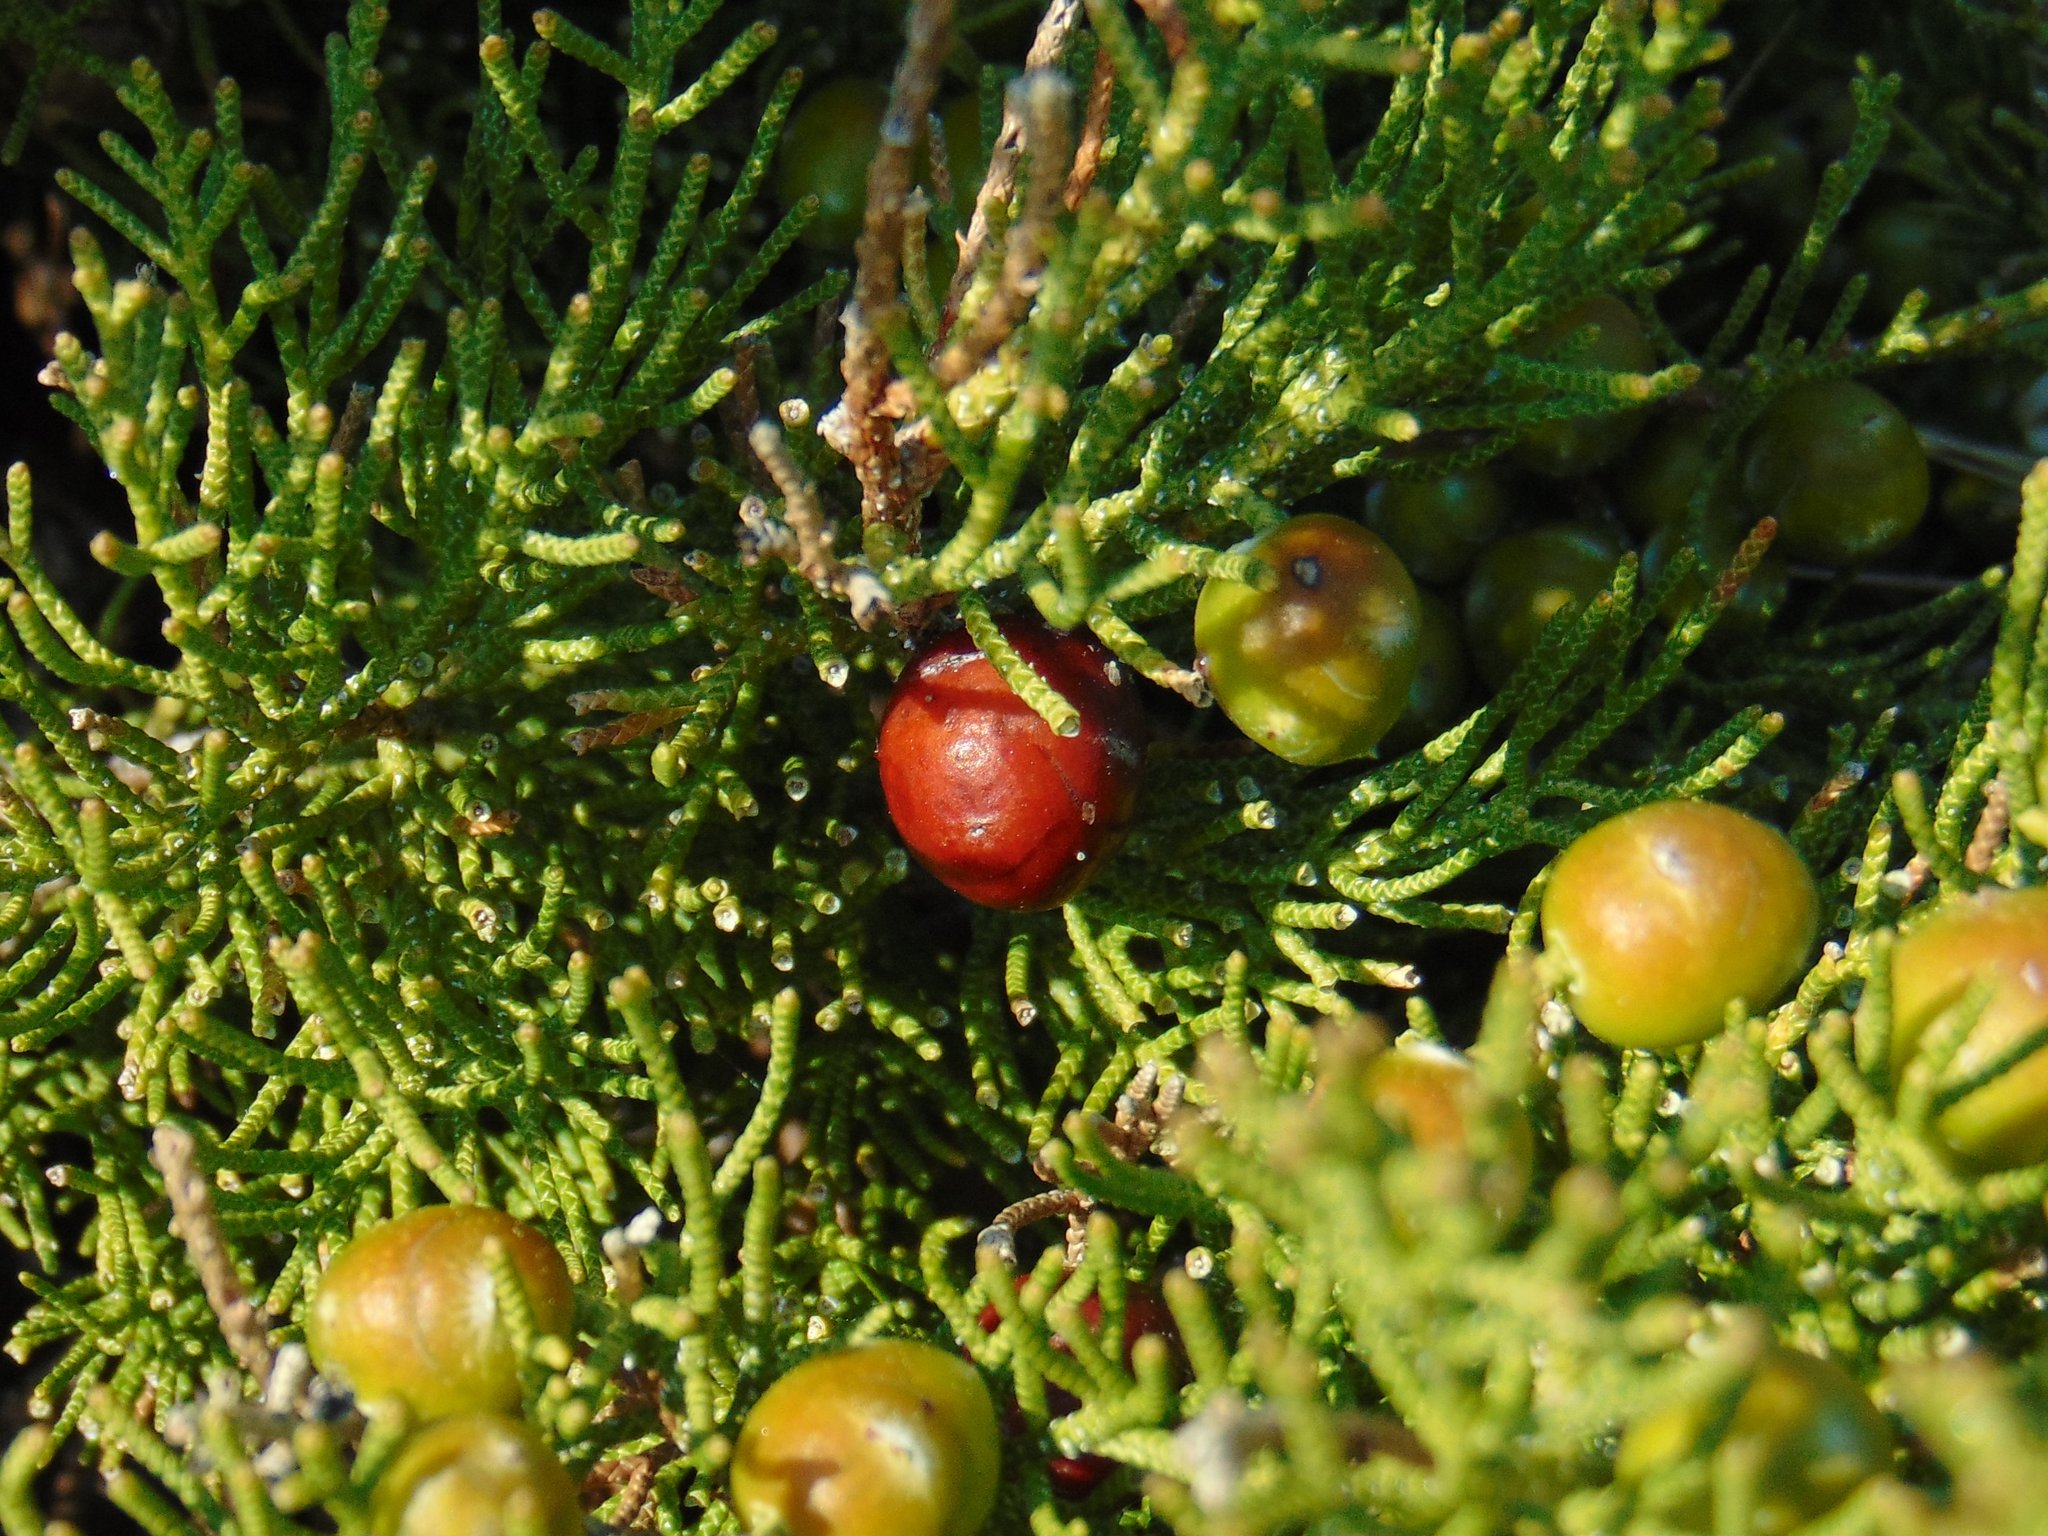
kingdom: Plantae
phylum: Tracheophyta
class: Pinopsida
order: Pinales
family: Cupressaceae
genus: Juniperus
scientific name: Juniperus phoenicea
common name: Phoenician juniper
